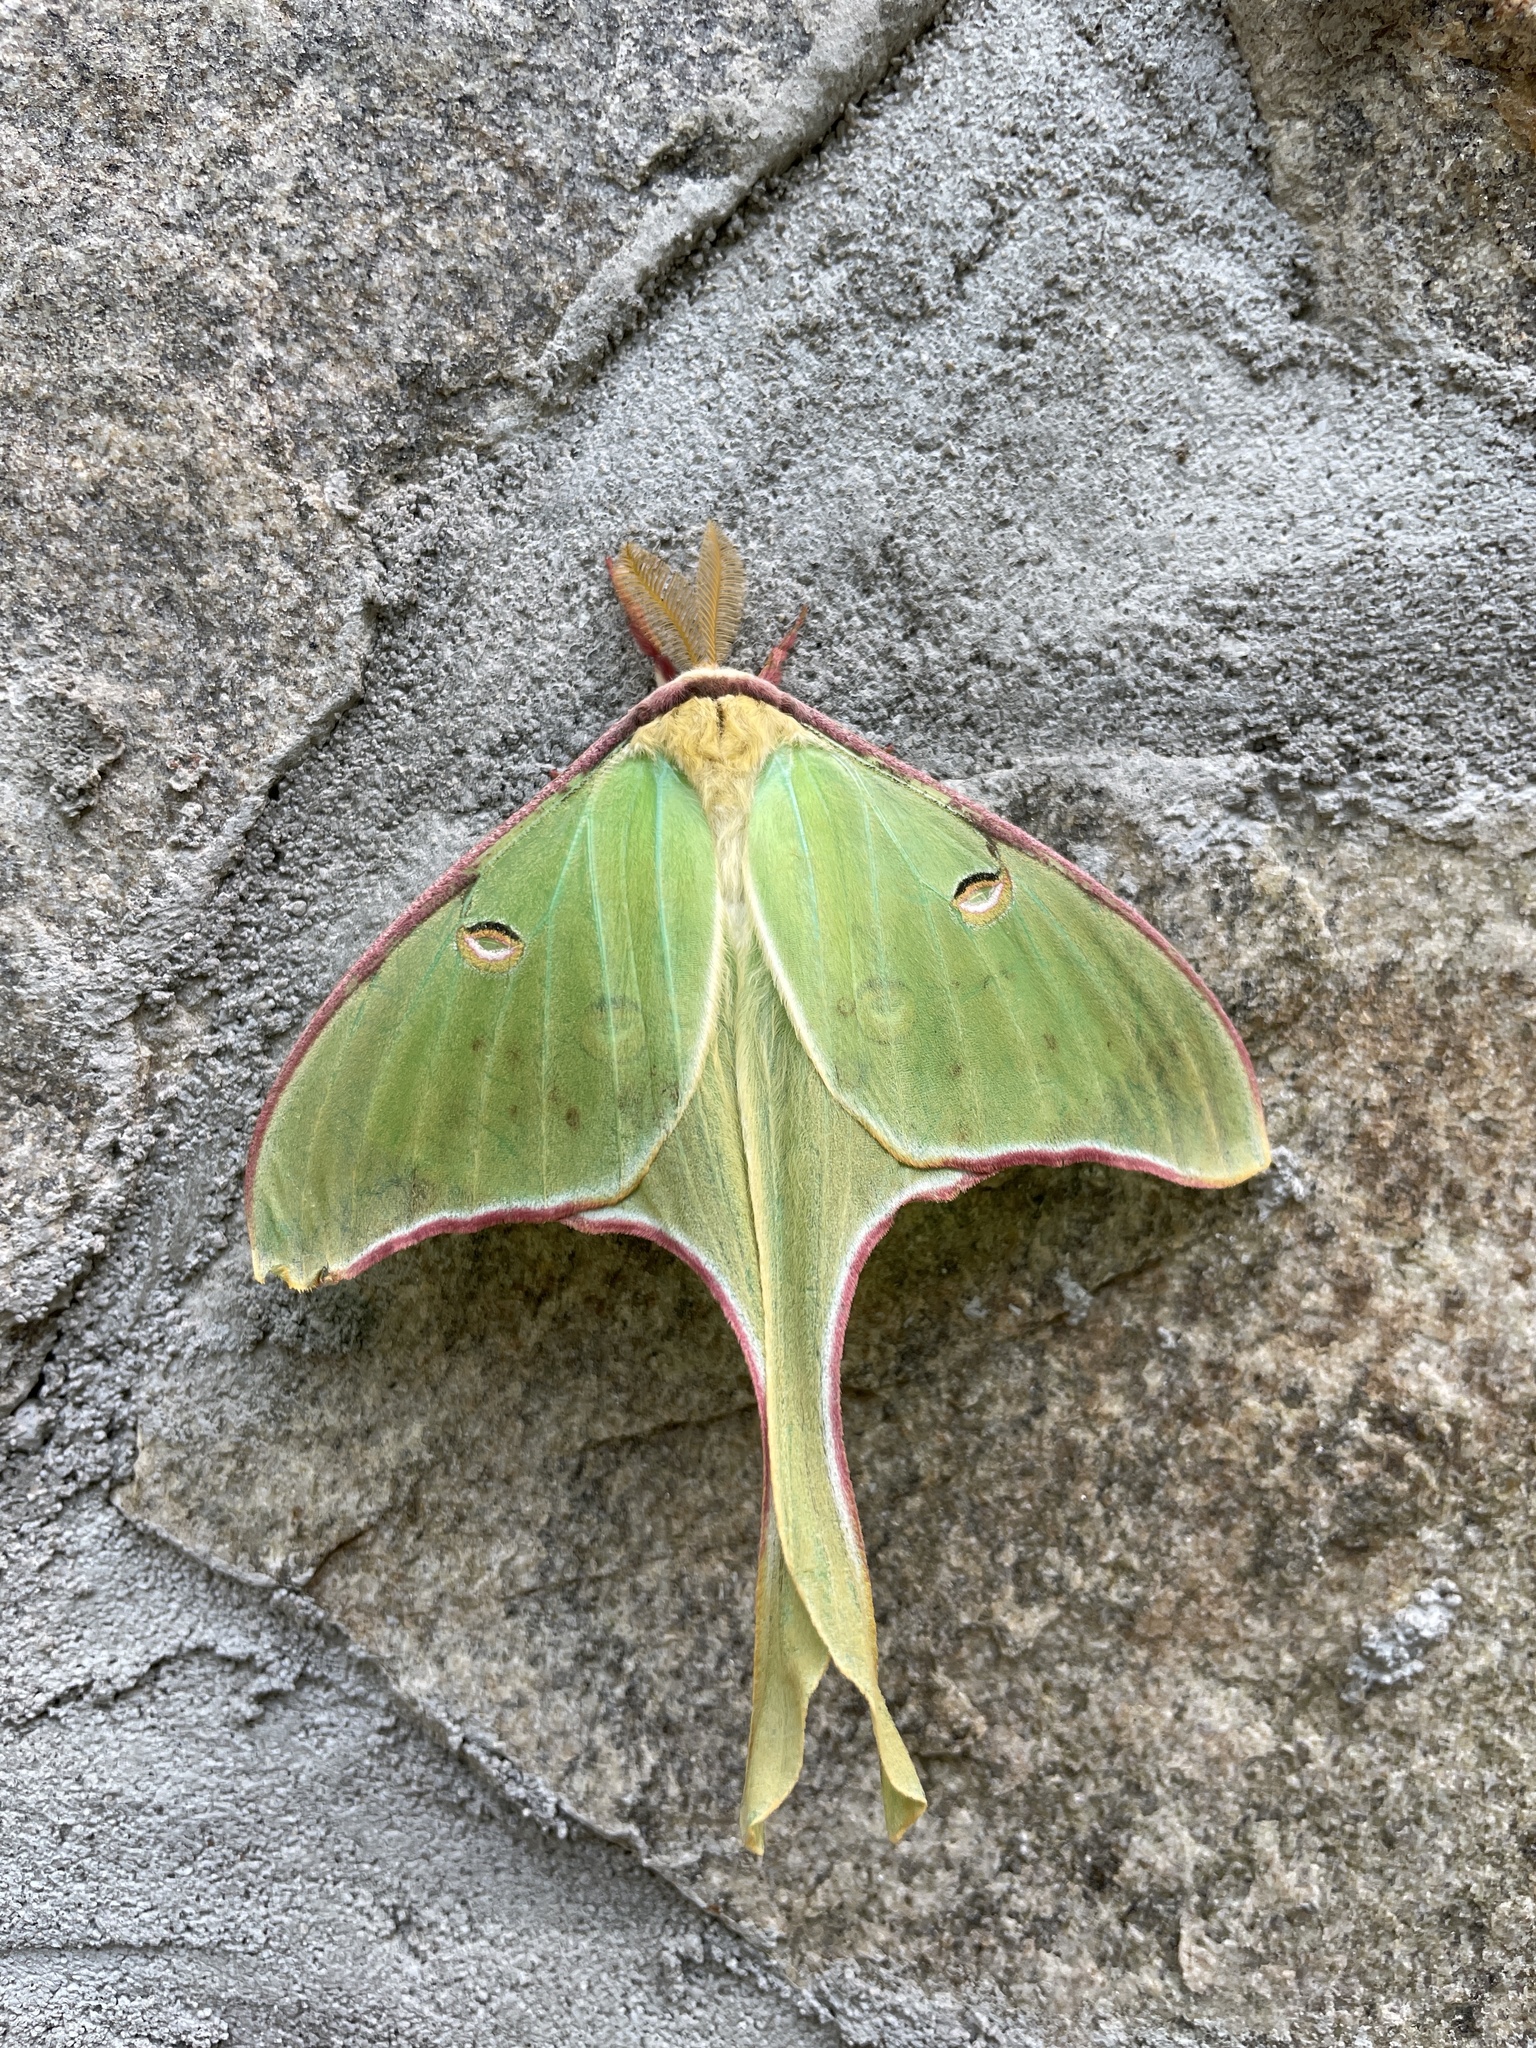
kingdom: Animalia
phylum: Arthropoda
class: Insecta
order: Lepidoptera
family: Saturniidae
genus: Actias
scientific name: Actias luna
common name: Luna moth
